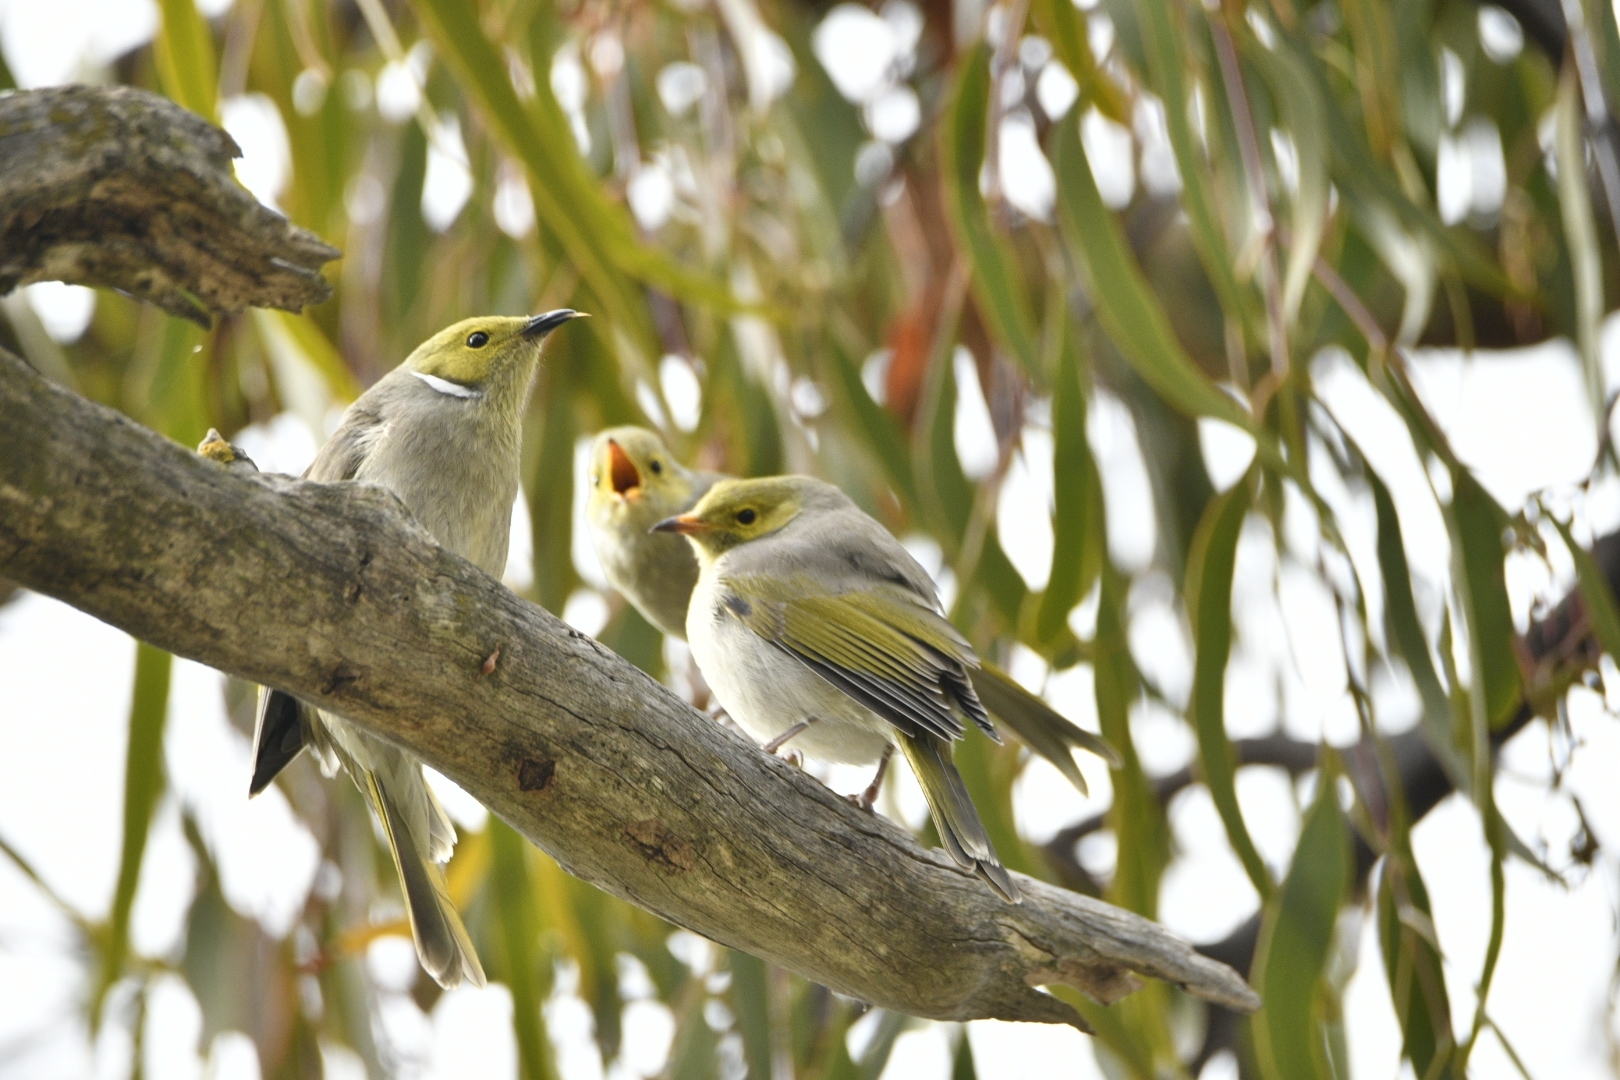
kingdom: Animalia
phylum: Chordata
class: Aves
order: Passeriformes
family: Meliphagidae
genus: Ptilotula
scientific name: Ptilotula penicillata
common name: White-plumed honeyeater
